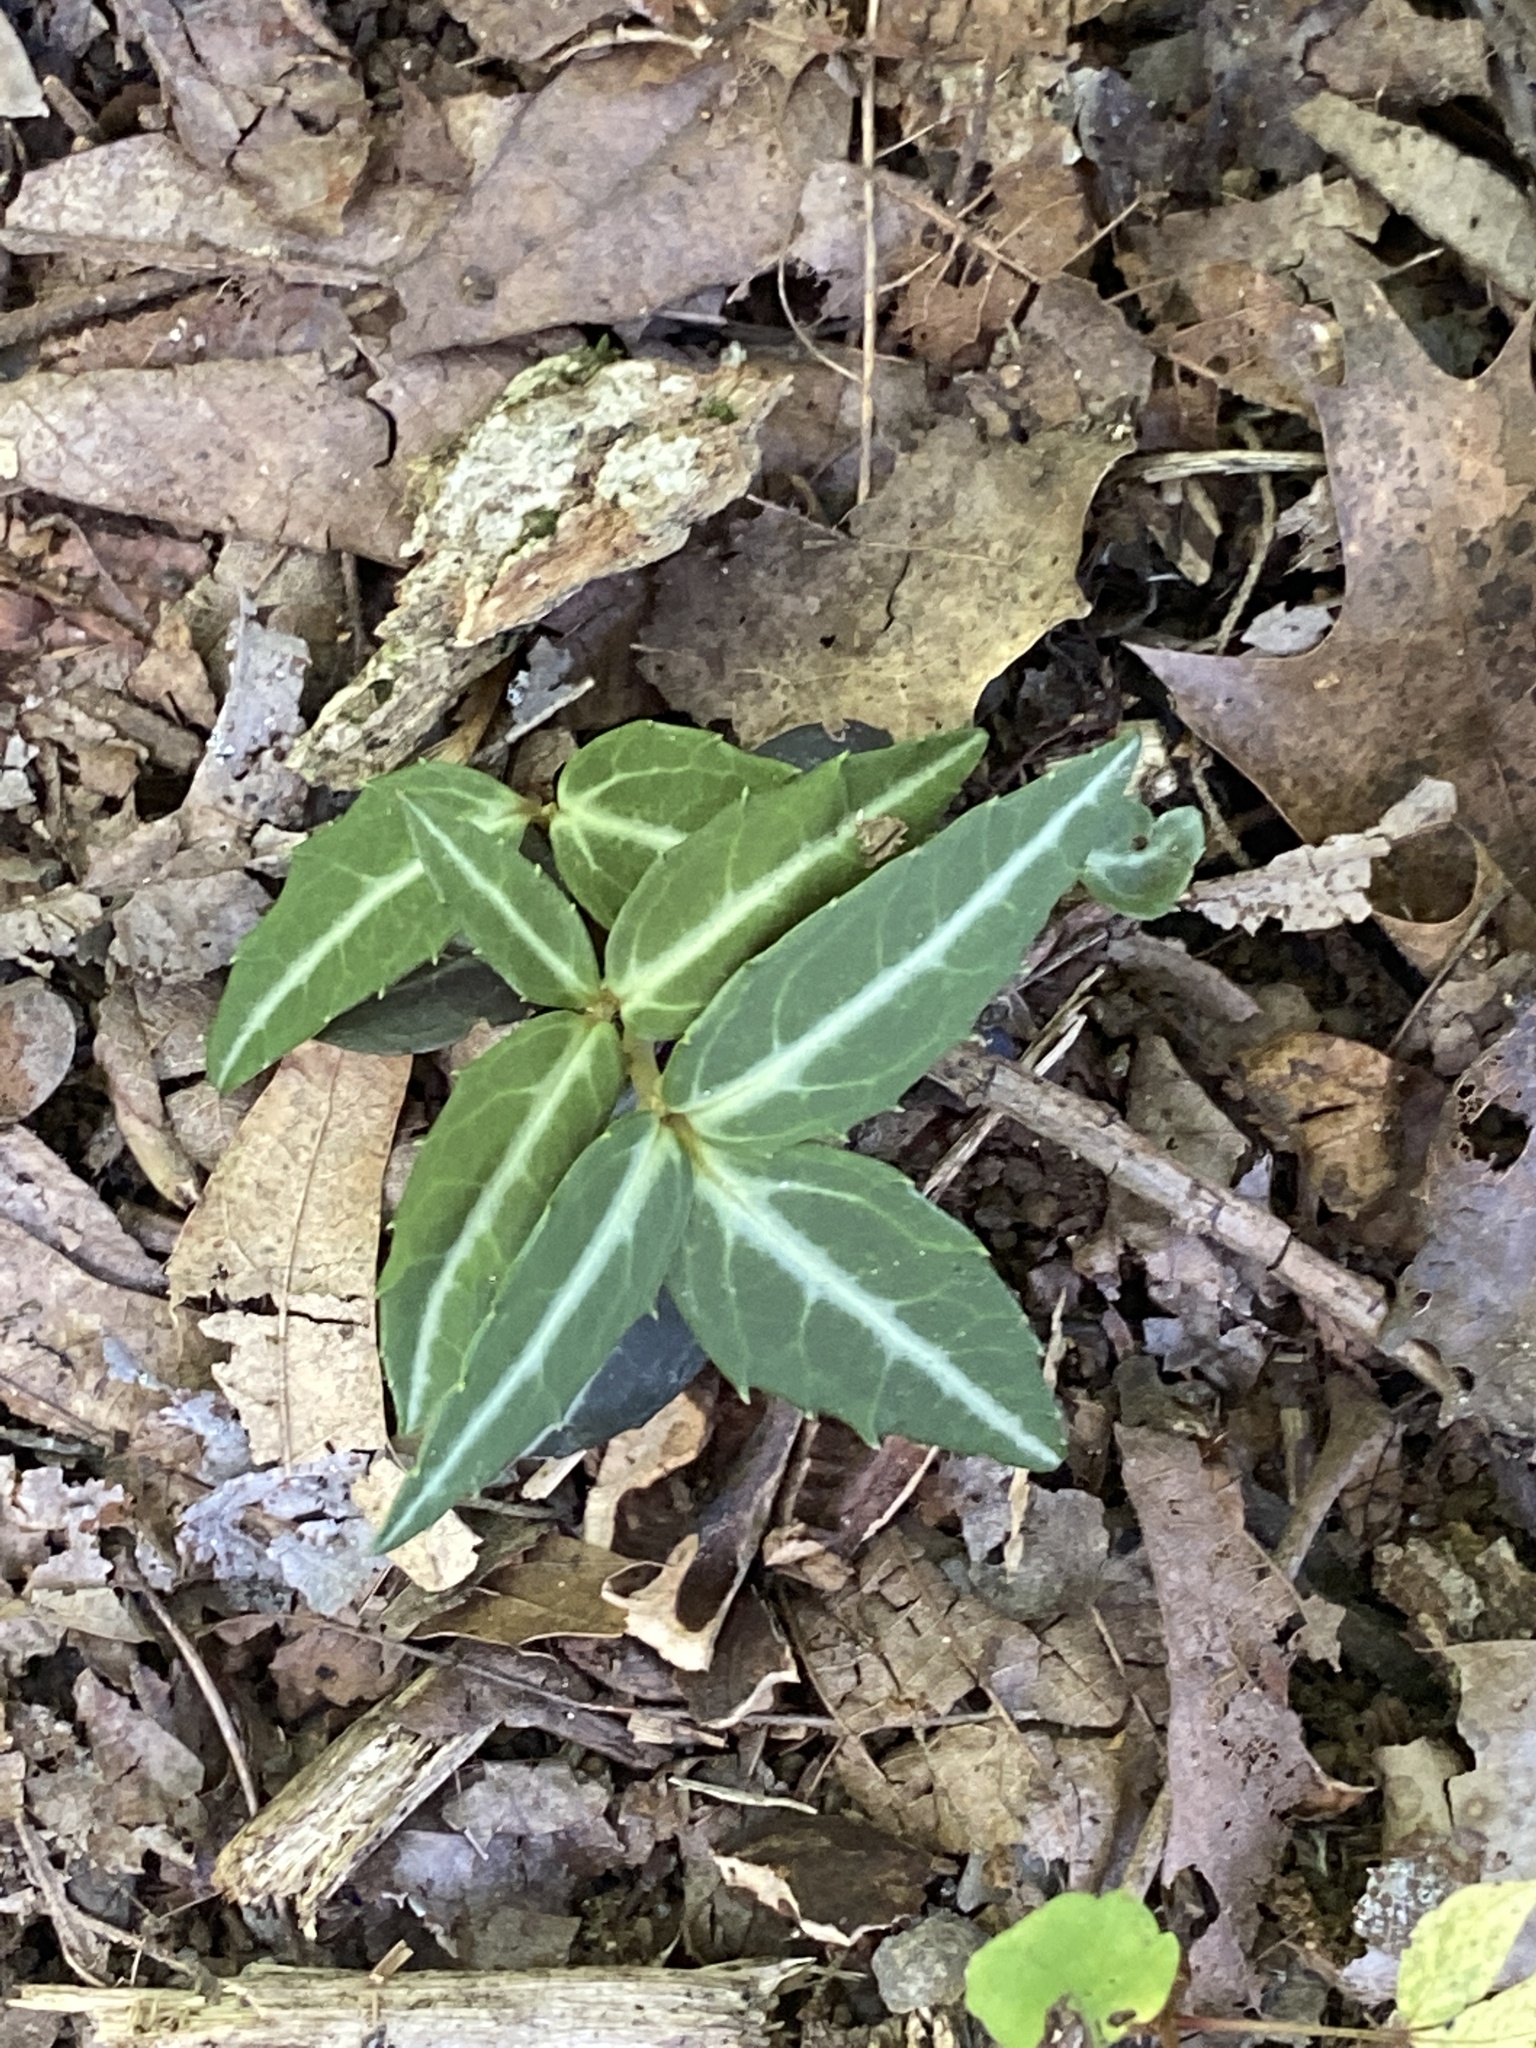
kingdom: Plantae
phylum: Tracheophyta
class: Magnoliopsida
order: Ericales
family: Ericaceae
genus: Chimaphila
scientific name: Chimaphila maculata
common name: Spotted pipsissewa
